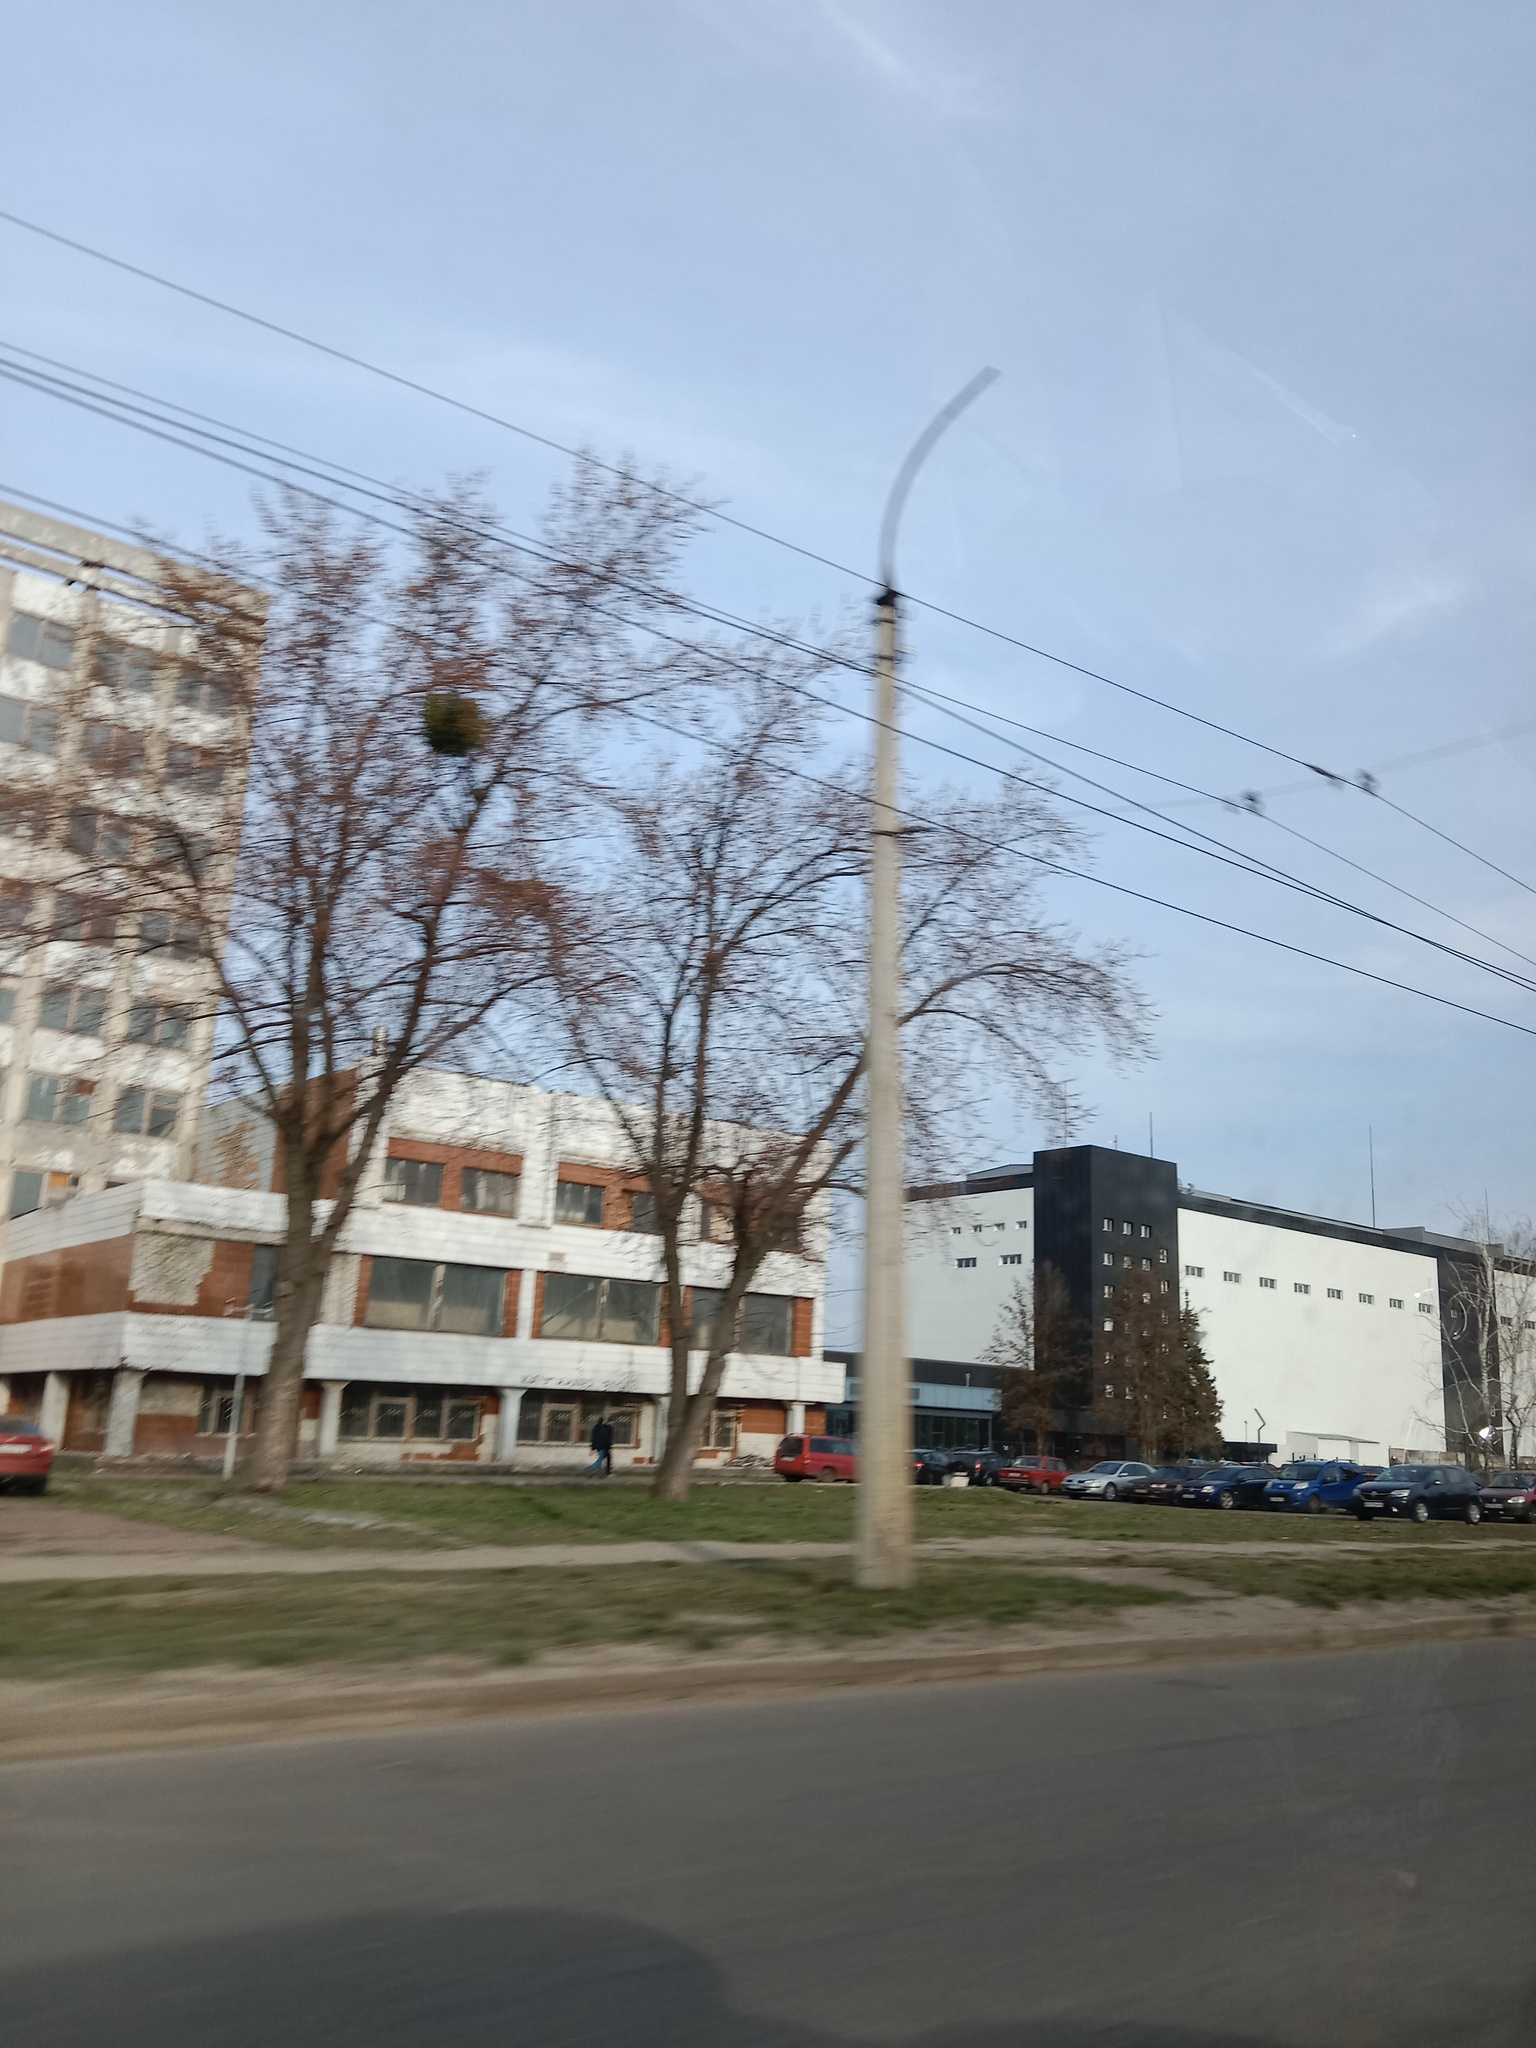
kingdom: Plantae
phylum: Tracheophyta
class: Magnoliopsida
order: Santalales
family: Viscaceae
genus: Viscum
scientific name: Viscum album
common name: Mistletoe
